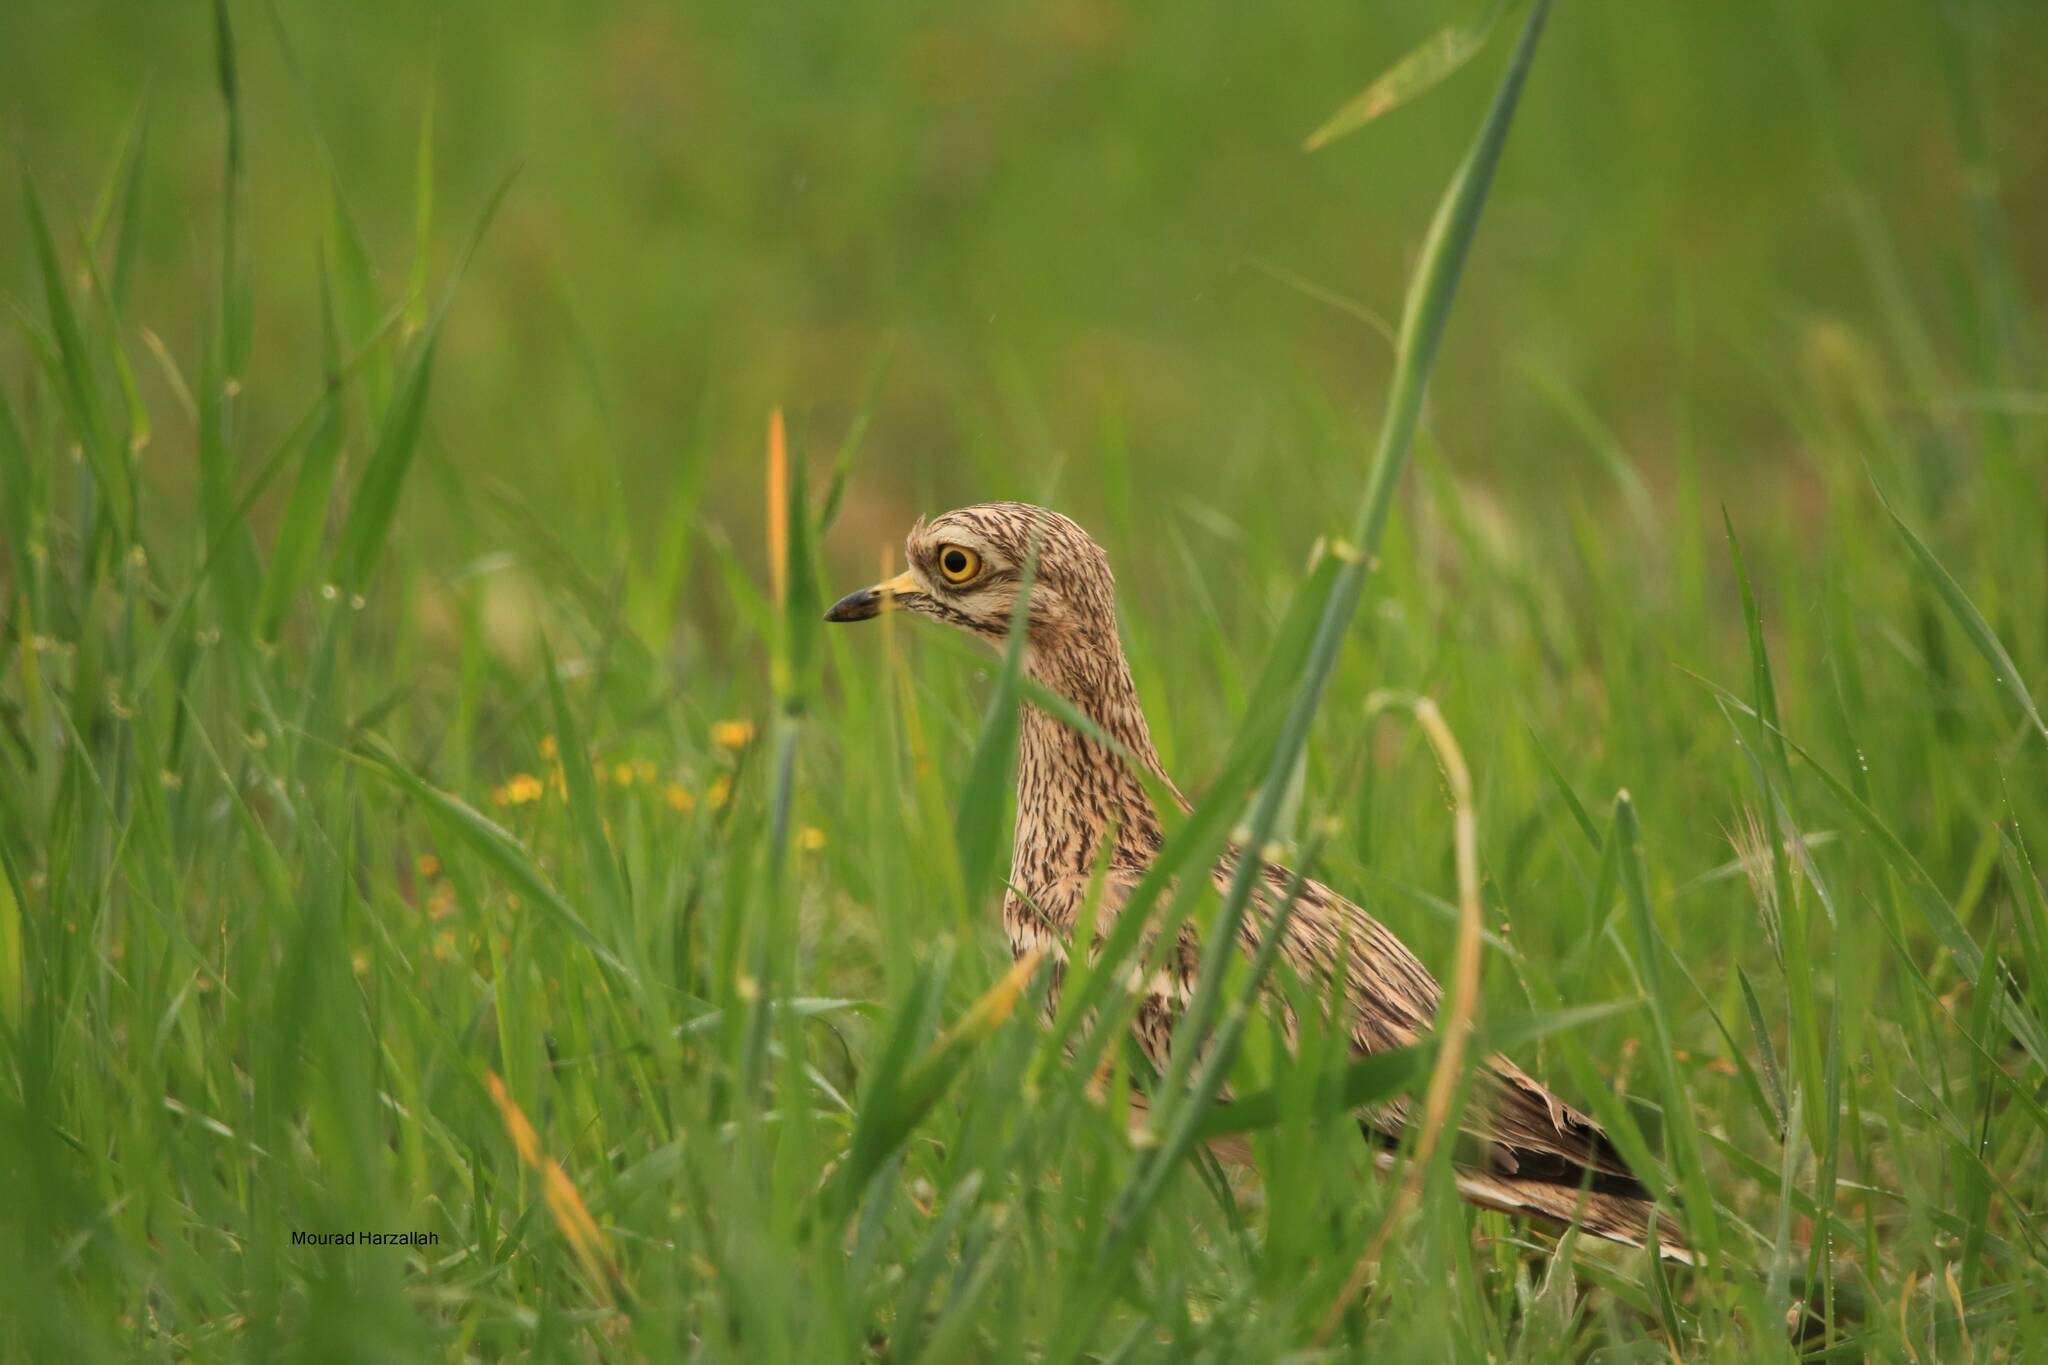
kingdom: Animalia
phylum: Chordata
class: Aves
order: Charadriiformes
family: Burhinidae
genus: Burhinus
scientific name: Burhinus oedicnemus
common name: Eurasian stone-curlew
